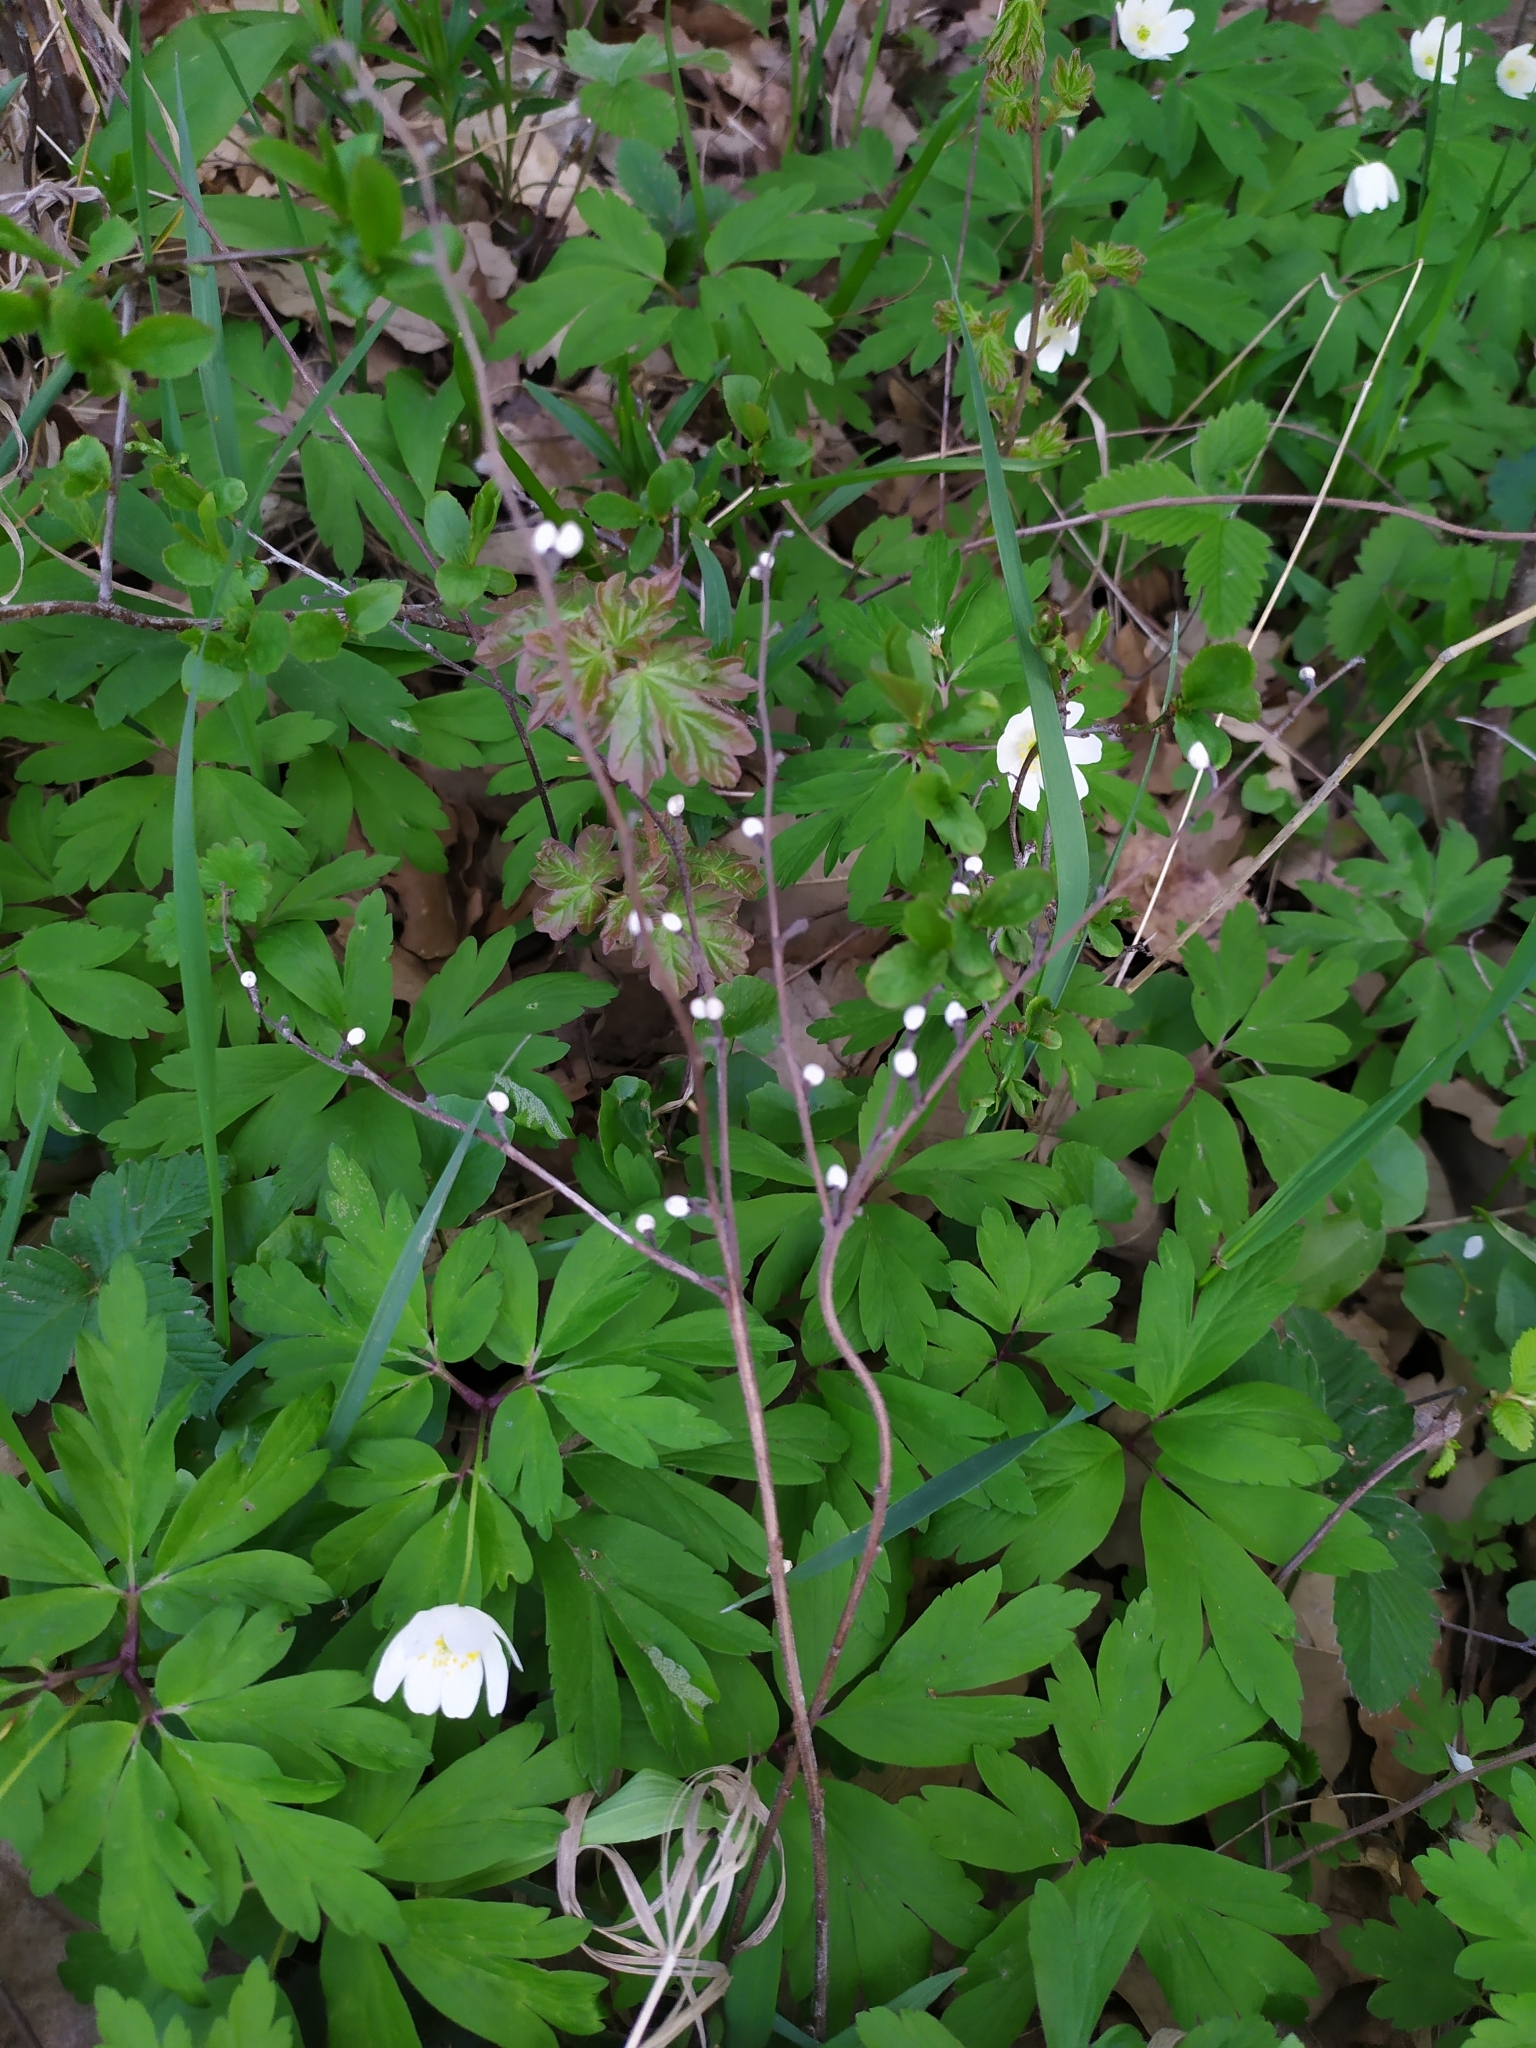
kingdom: Plantae
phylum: Tracheophyta
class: Magnoliopsida
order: Boraginales
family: Boraginaceae
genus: Aegonychon
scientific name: Aegonychon purpurocaeruleum
